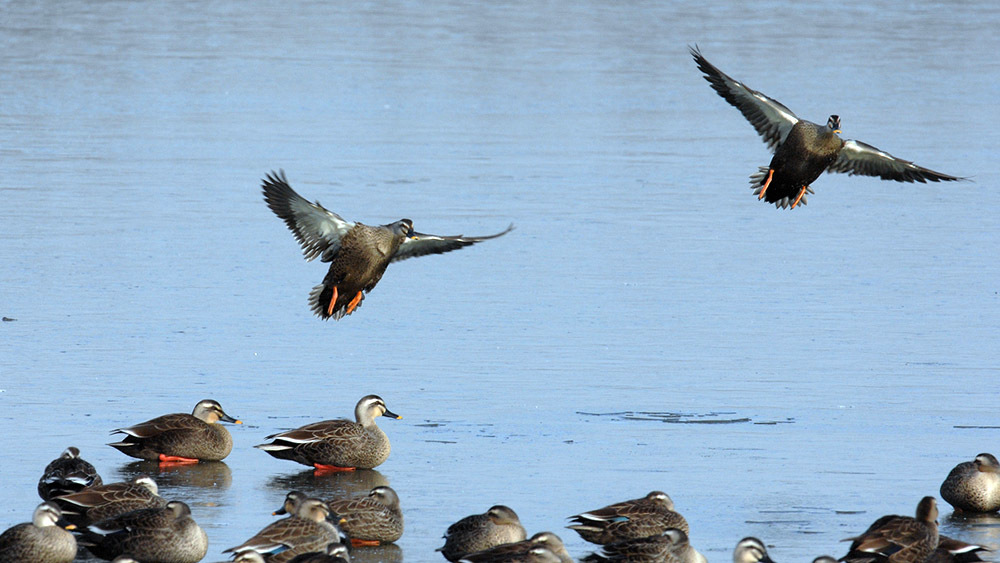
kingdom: Animalia
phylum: Chordata
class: Aves
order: Anseriformes
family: Anatidae
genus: Anas
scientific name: Anas zonorhyncha
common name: Eastern spot-billed duck
